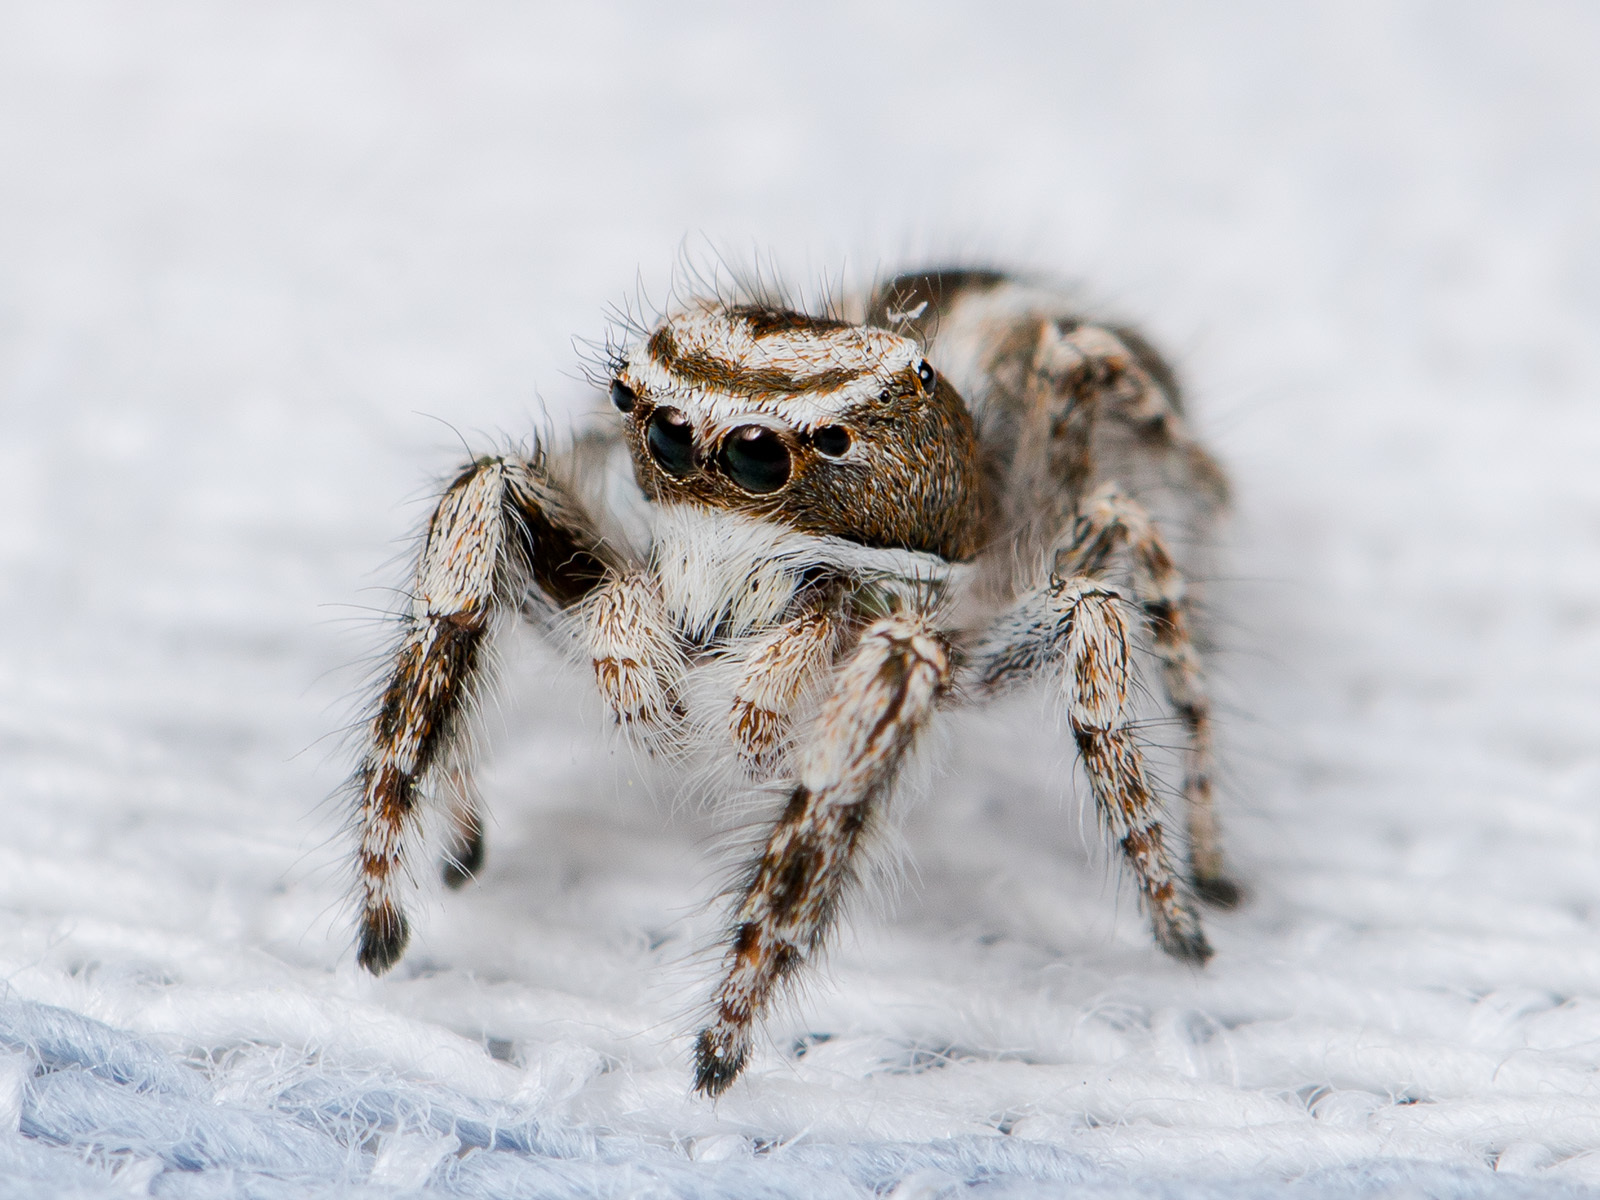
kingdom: Animalia
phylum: Arthropoda
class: Arachnida
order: Araneae
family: Salticidae
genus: Pseudomogrus
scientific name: Pseudomogrus validus
